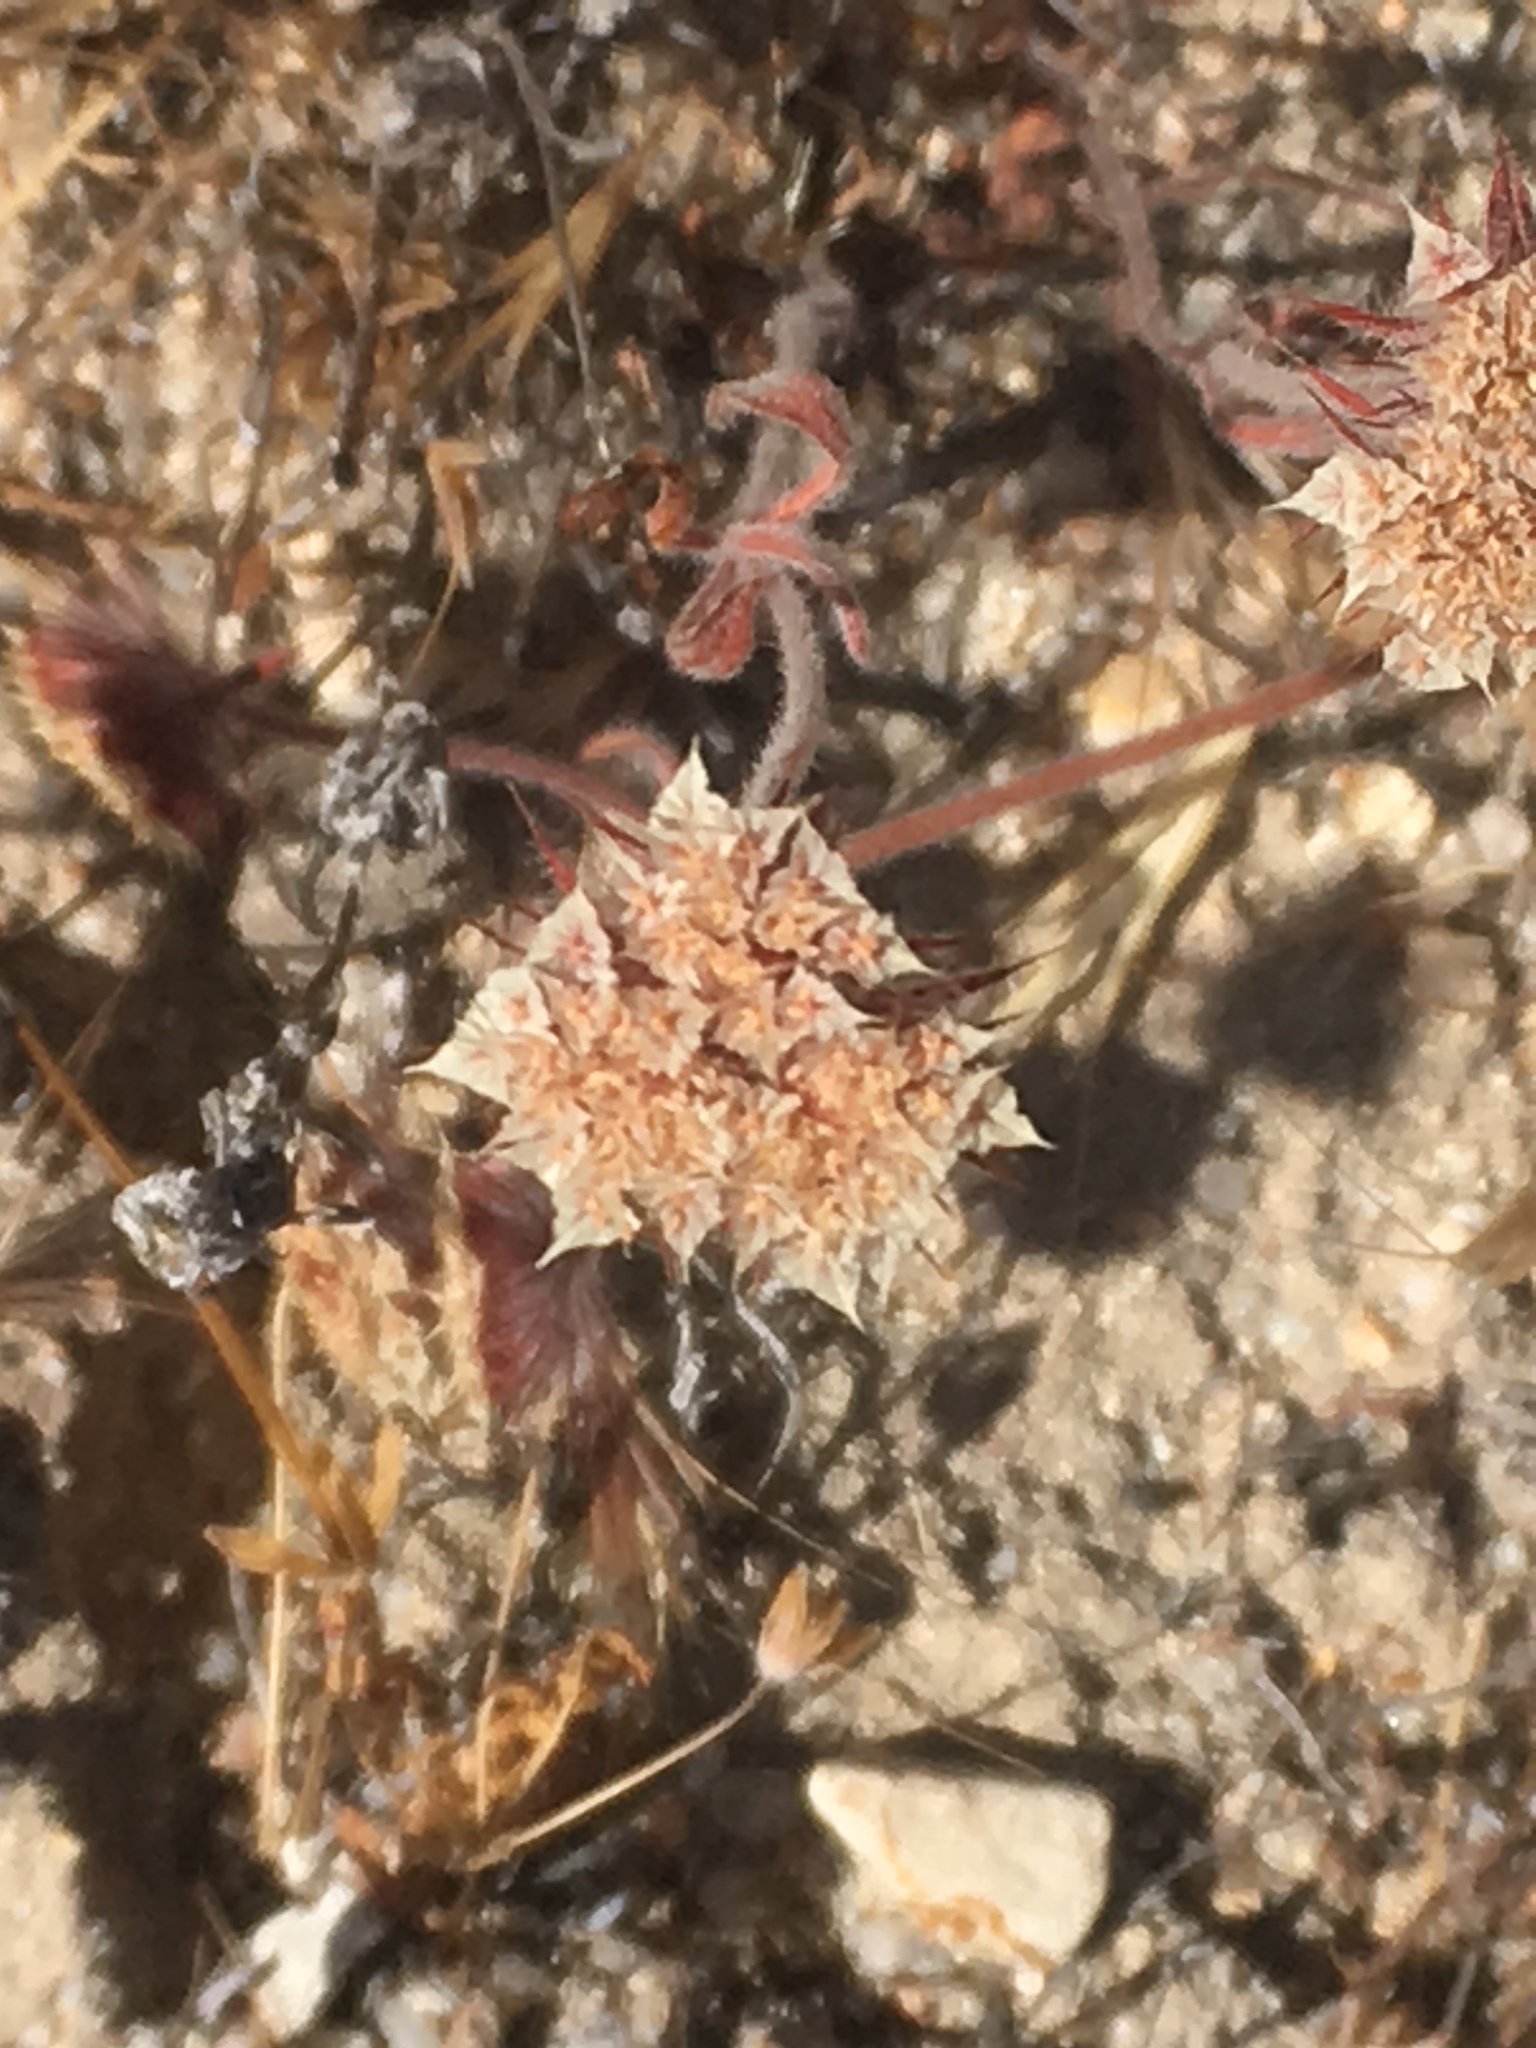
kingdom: Plantae
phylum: Tracheophyta
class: Magnoliopsida
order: Caryophyllales
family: Polygonaceae
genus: Chorizanthe
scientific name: Chorizanthe douglasii
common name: Douglas's spineflower
